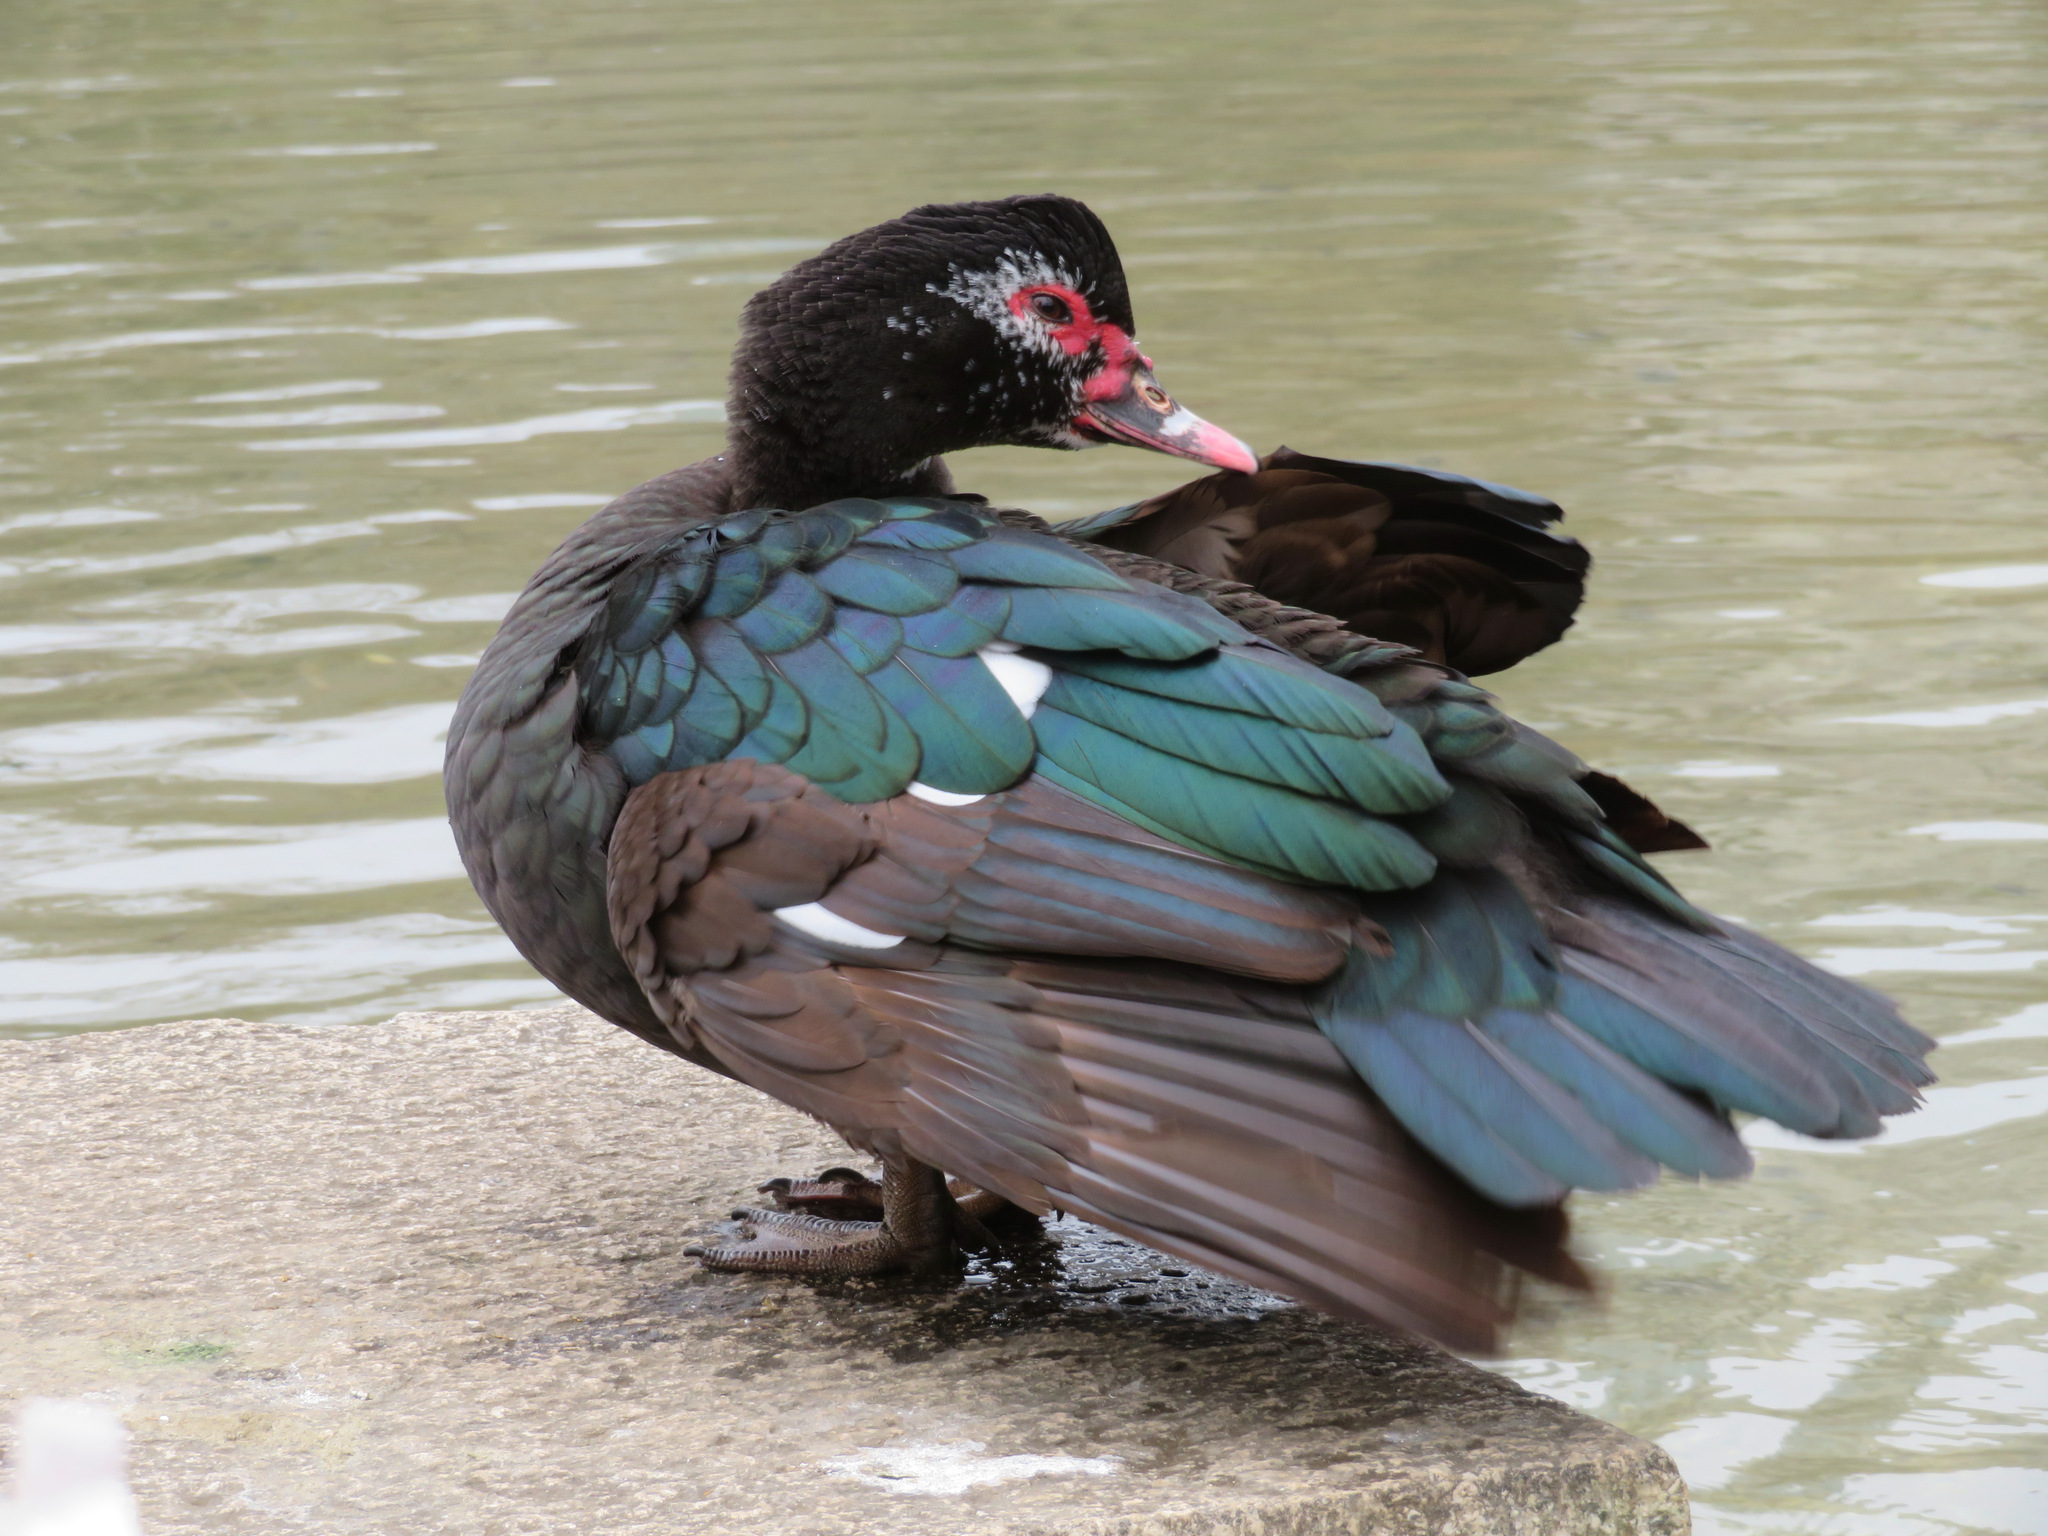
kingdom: Animalia
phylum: Chordata
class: Aves
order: Anseriformes
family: Anatidae
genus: Cairina
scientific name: Cairina moschata
